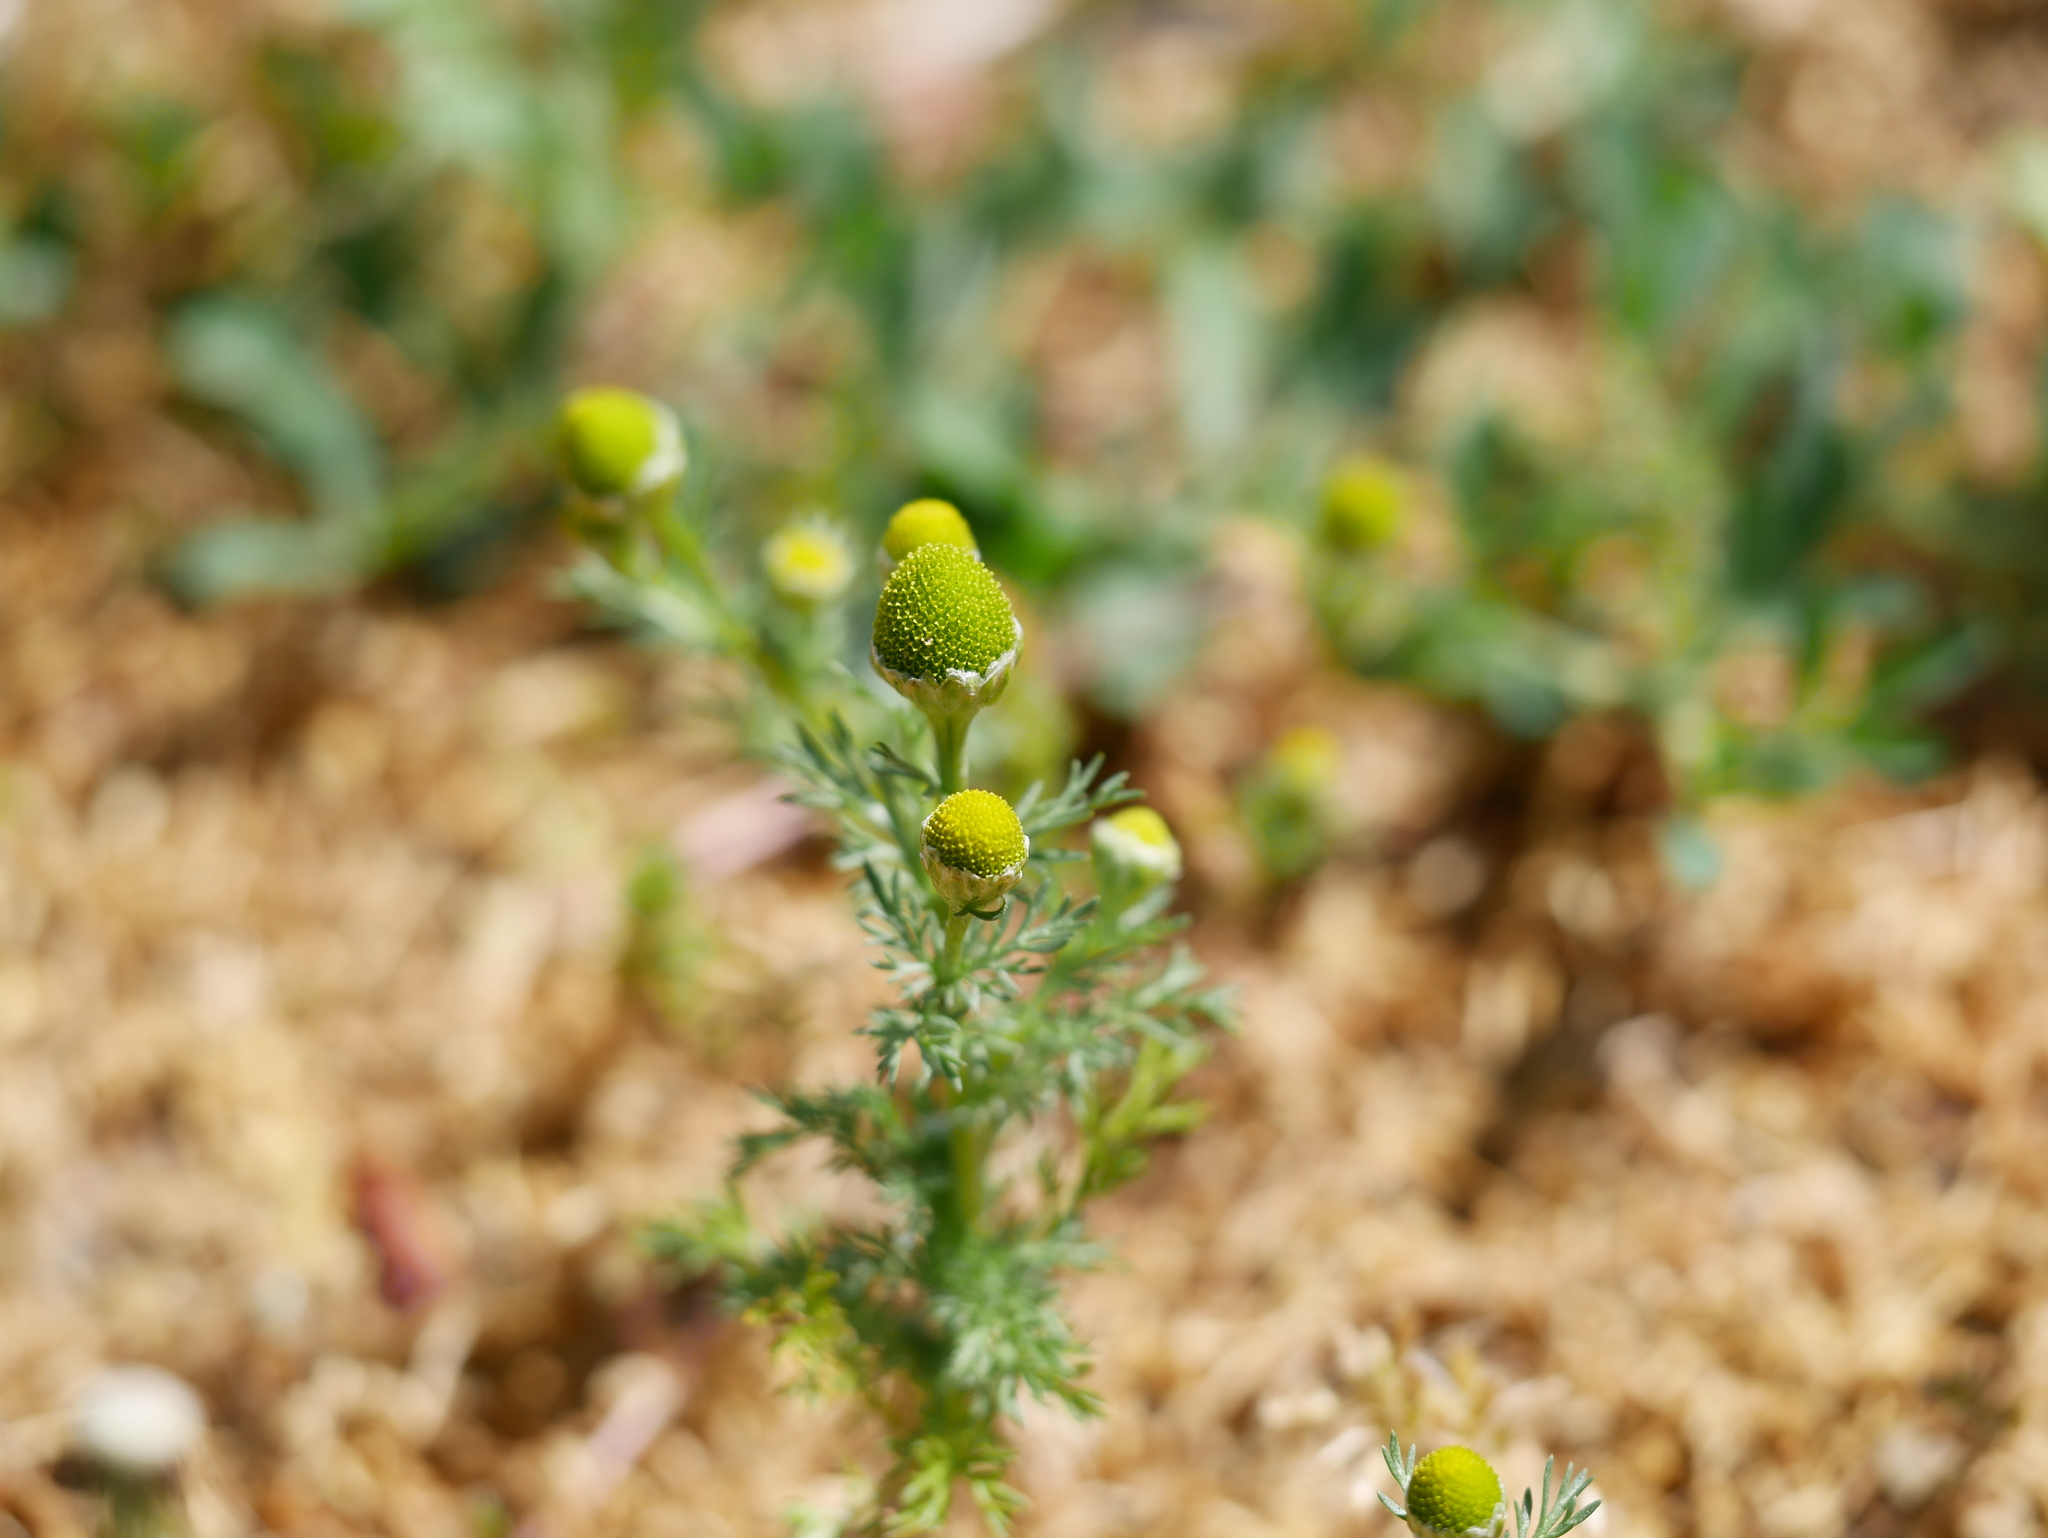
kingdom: Plantae
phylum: Tracheophyta
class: Magnoliopsida
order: Asterales
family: Asteraceae
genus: Matricaria
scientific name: Matricaria discoidea
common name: Disc mayweed
